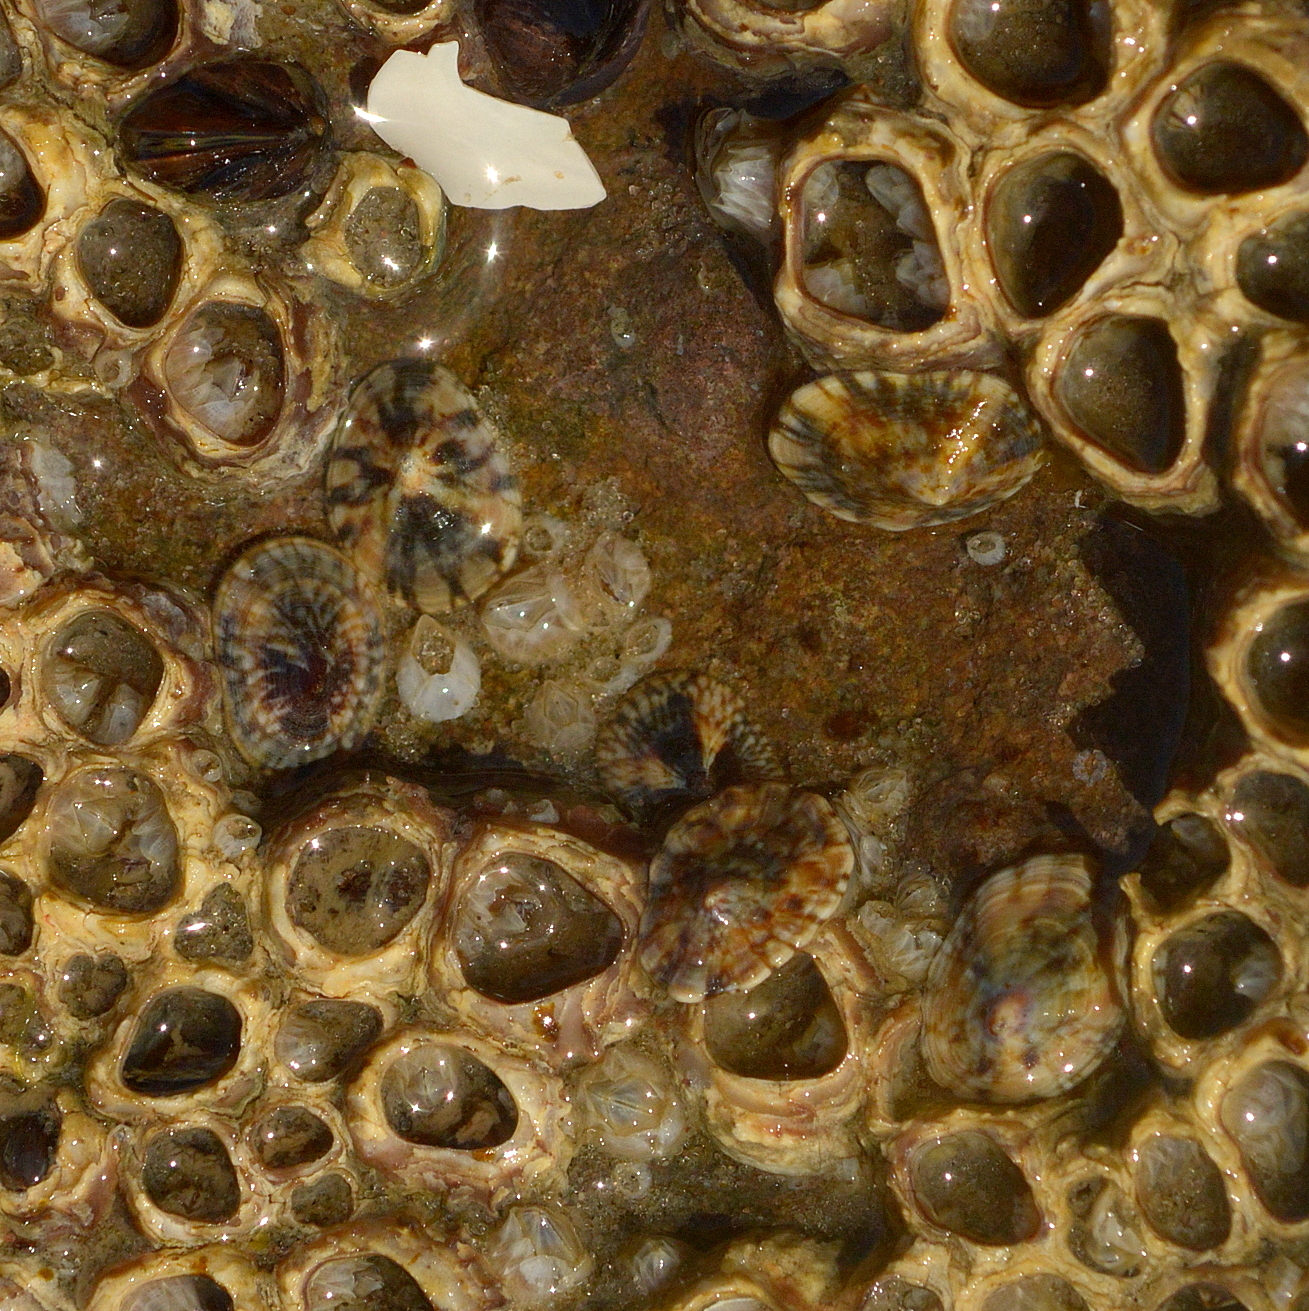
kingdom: Animalia
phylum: Mollusca
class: Gastropoda
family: Lottiidae
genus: Lottia
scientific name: Lottia subrugosa
